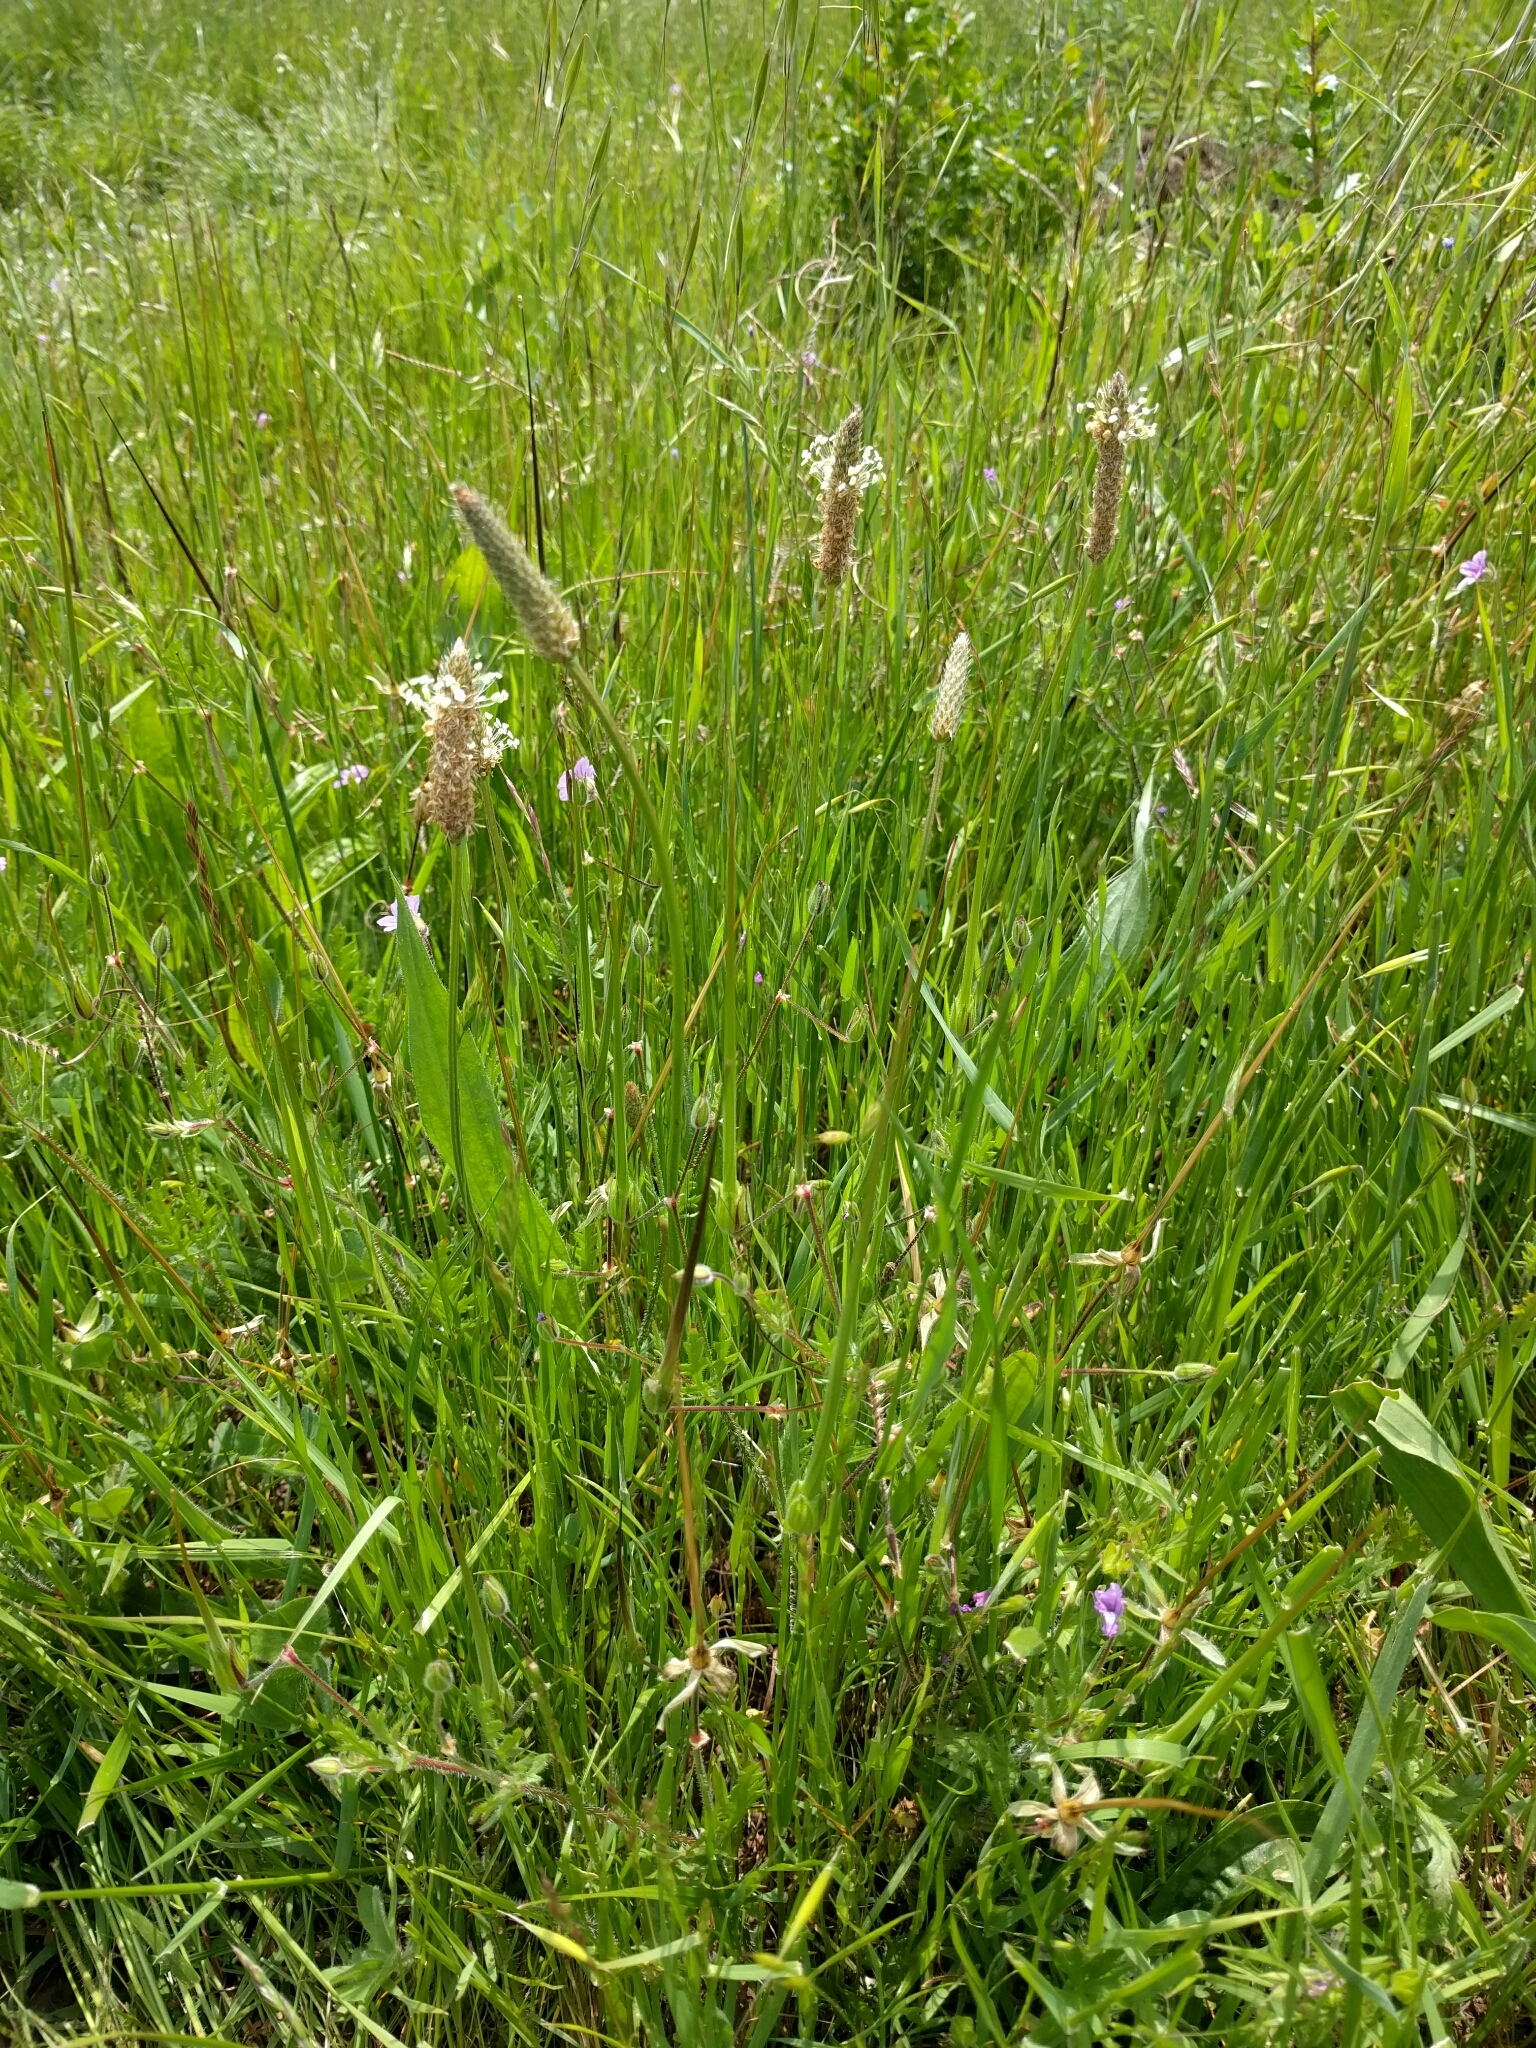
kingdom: Plantae
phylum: Tracheophyta
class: Magnoliopsida
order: Lamiales
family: Plantaginaceae
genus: Plantago
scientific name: Plantago lanceolata
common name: Ribwort plantain
